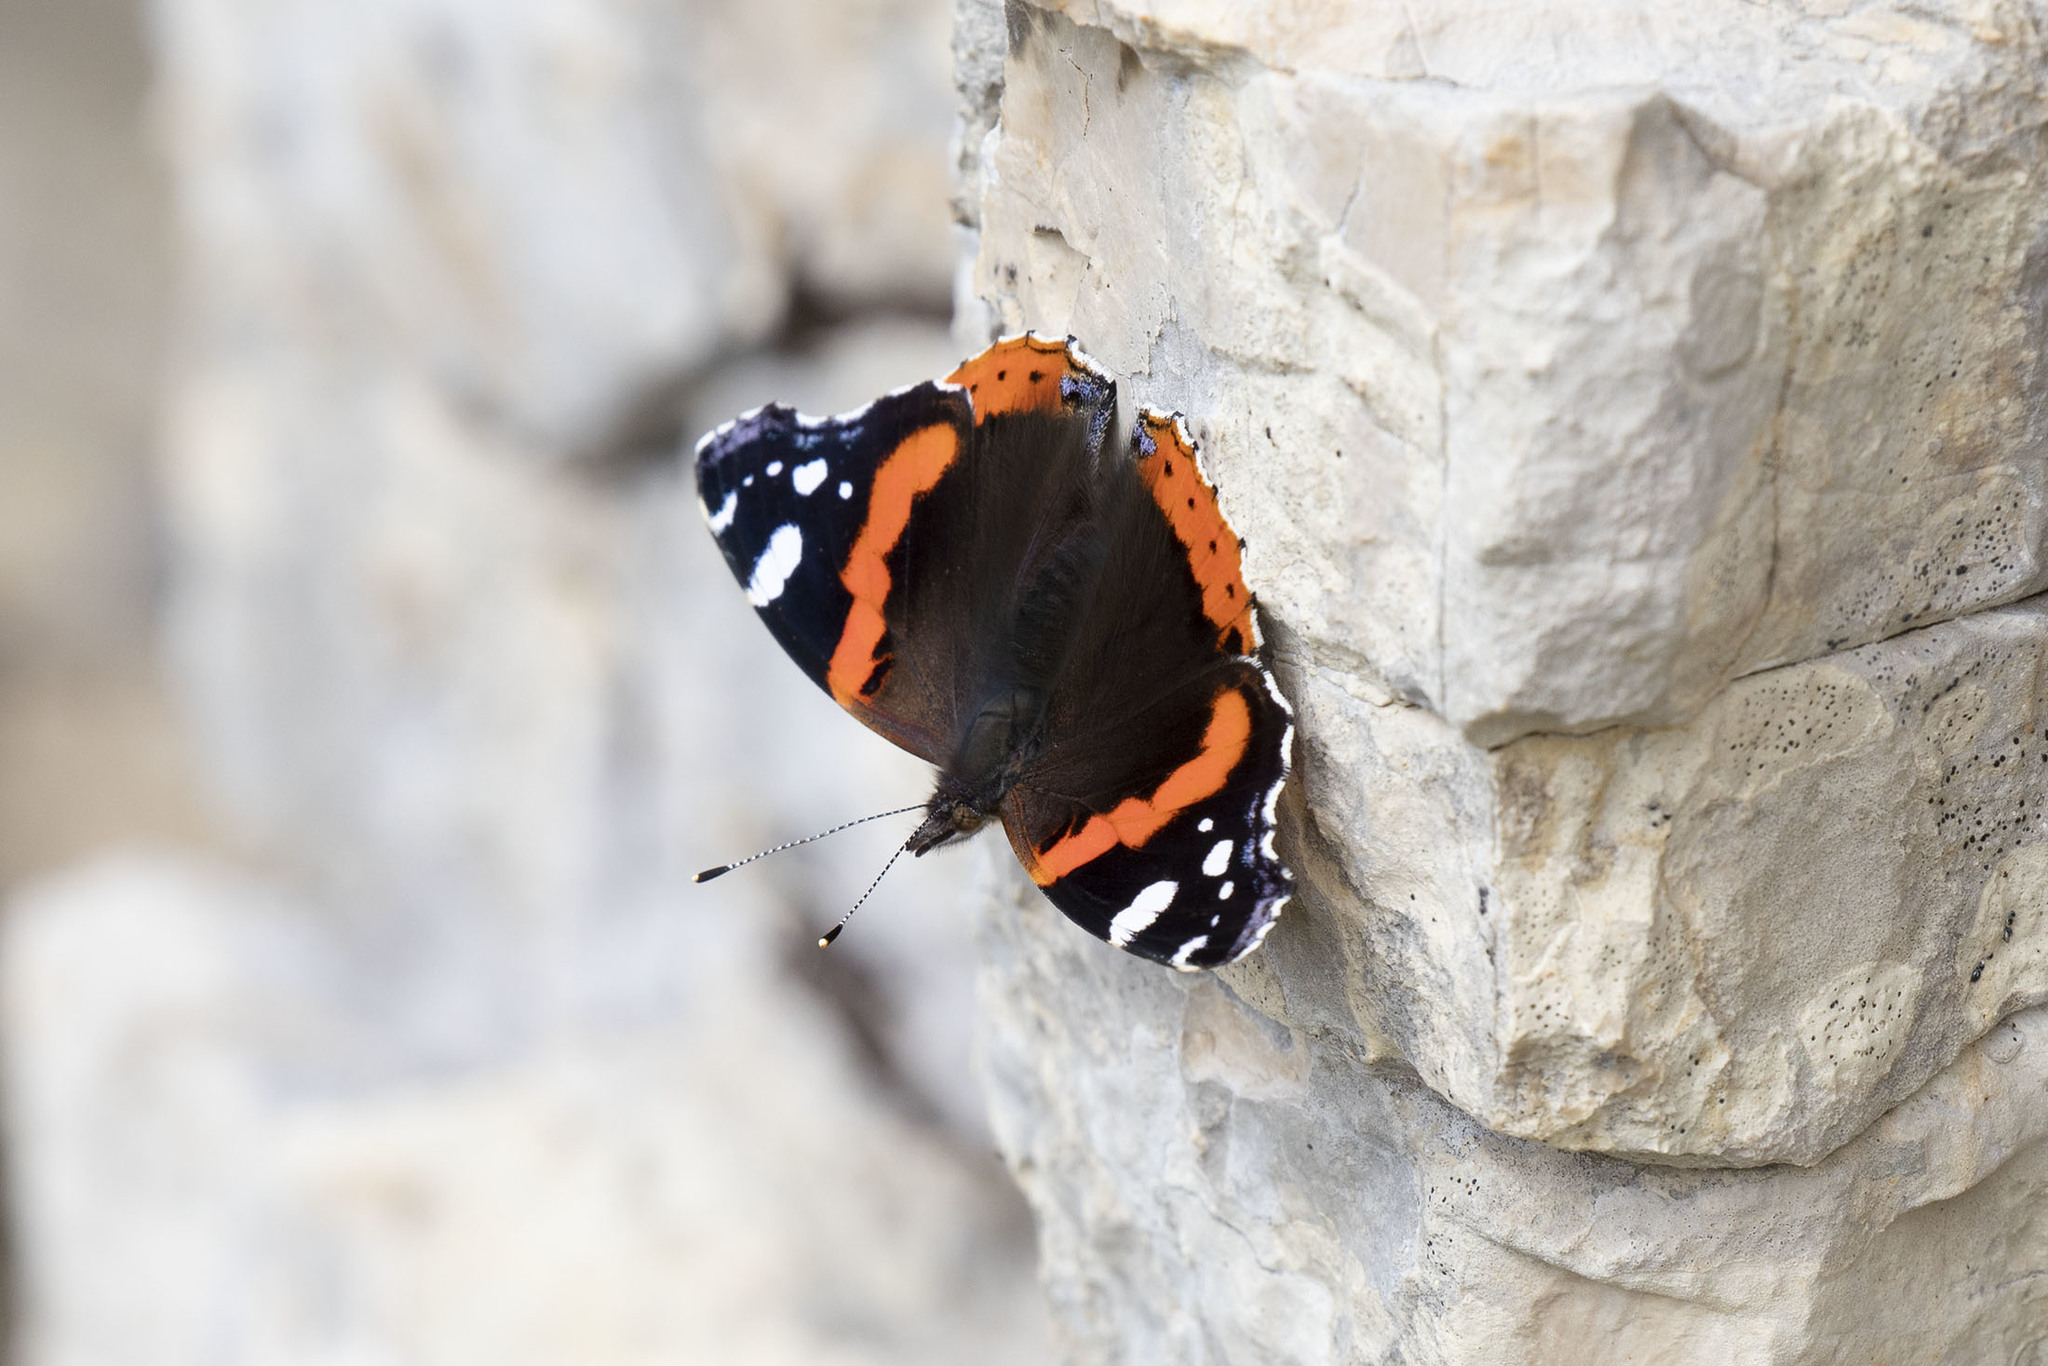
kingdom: Animalia
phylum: Arthropoda
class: Insecta
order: Lepidoptera
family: Nymphalidae
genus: Vanessa
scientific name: Vanessa atalanta
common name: Red admiral
